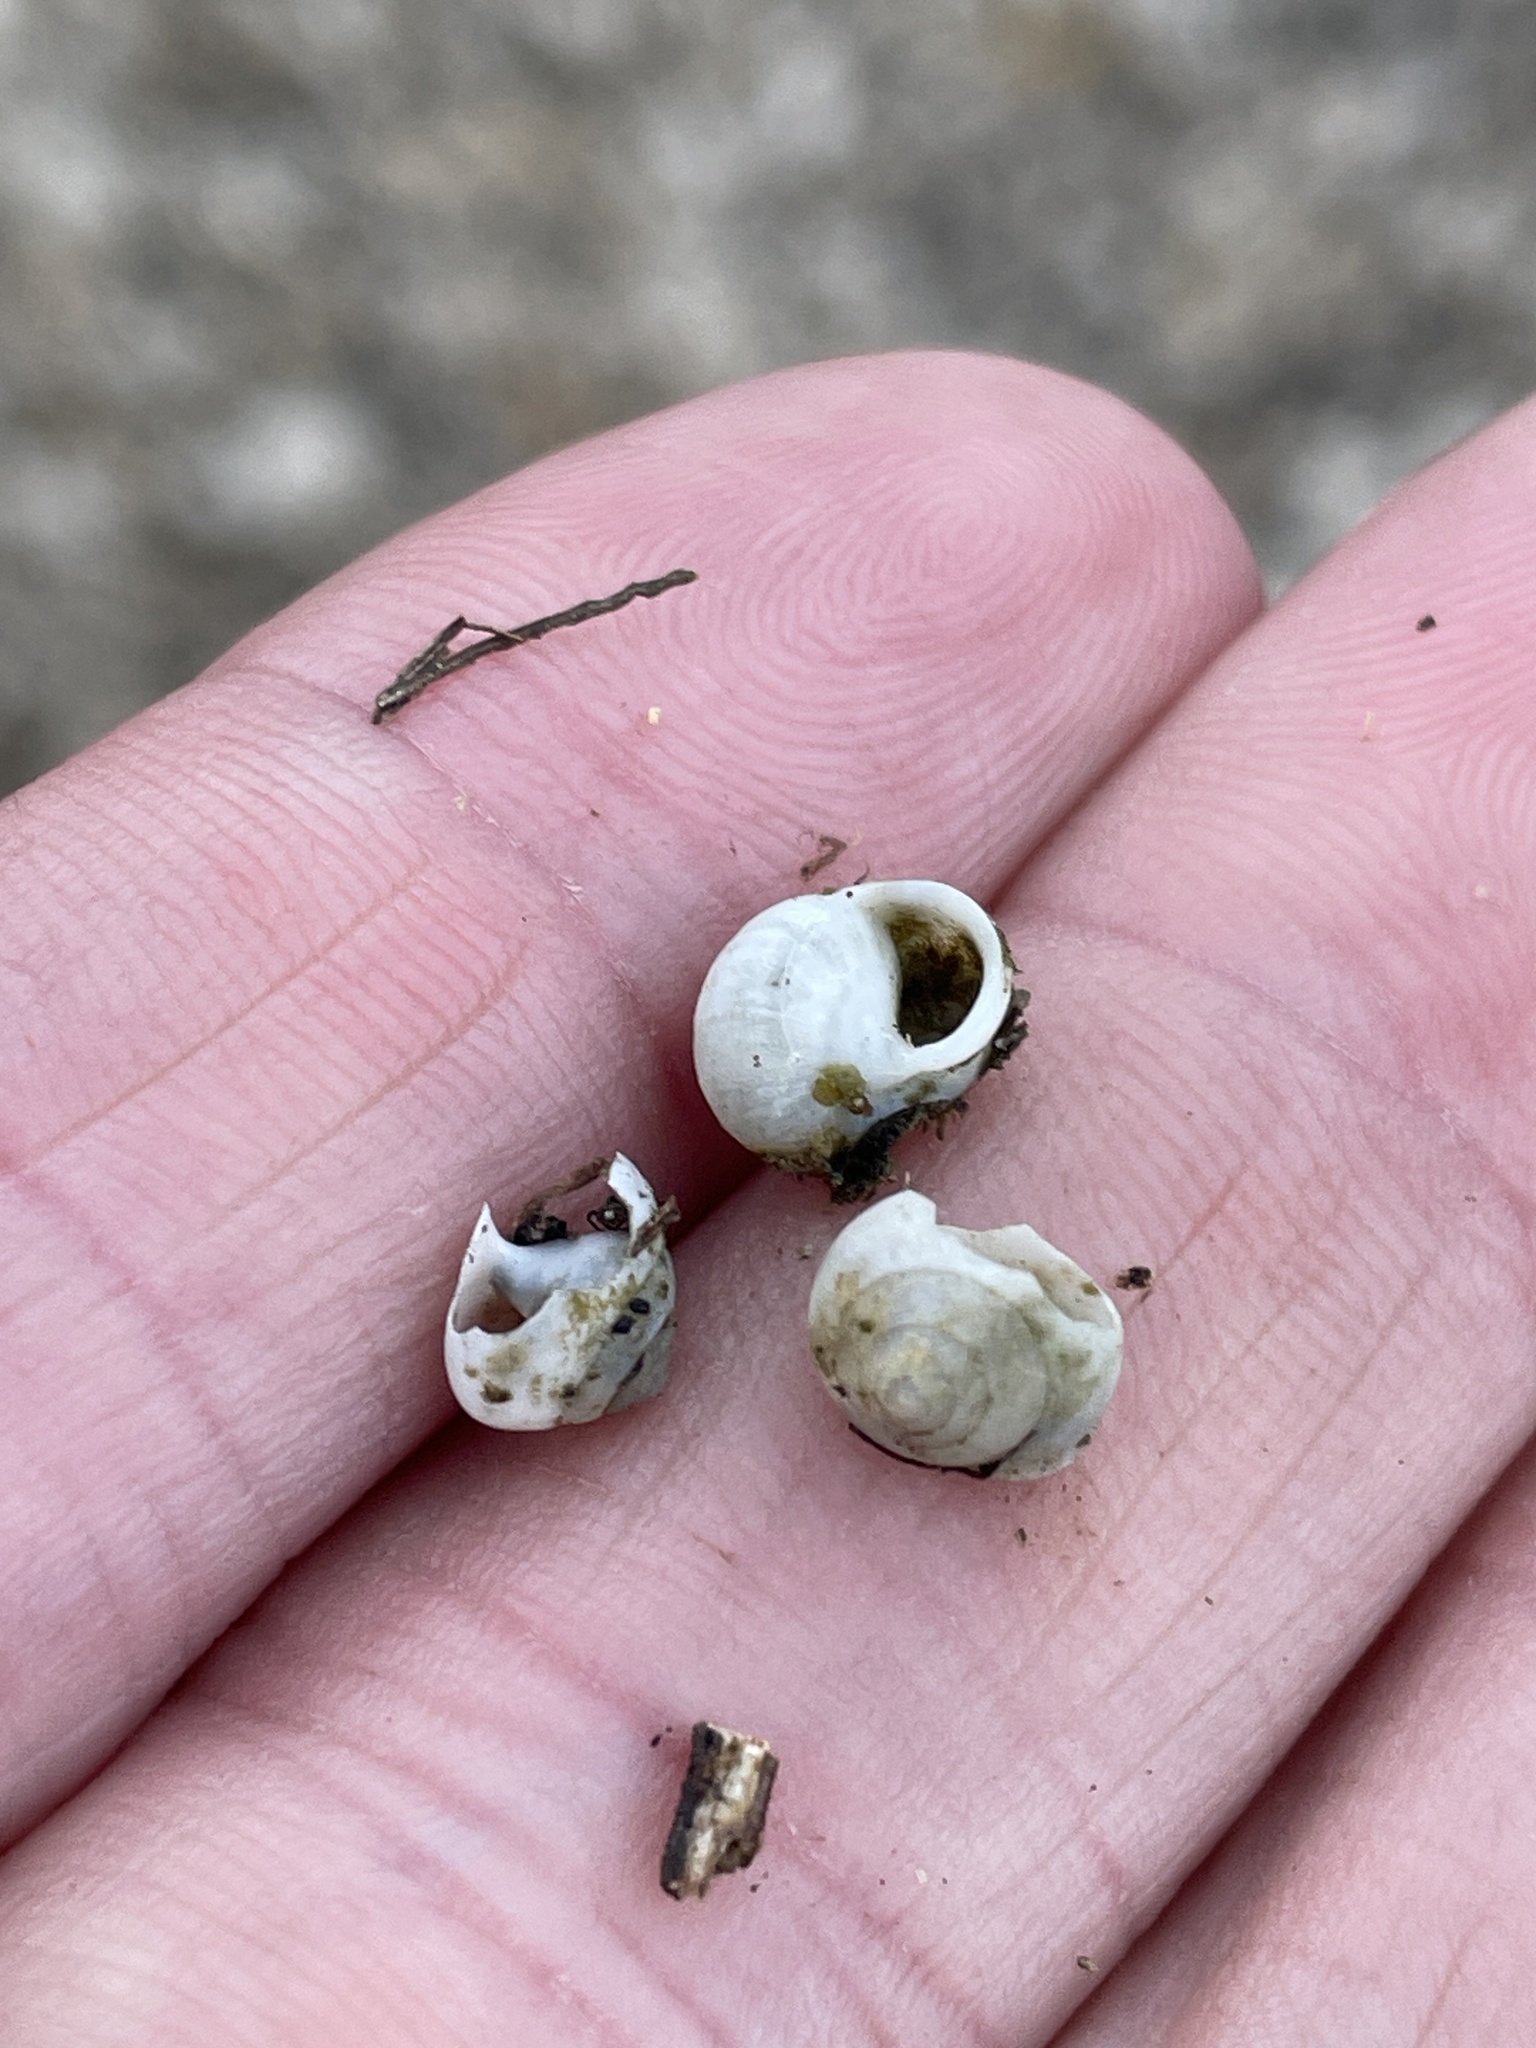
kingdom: Animalia
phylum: Mollusca
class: Gastropoda
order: Cycloneritida
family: Helicinidae
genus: Helicina
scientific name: Helicina orbiculata
